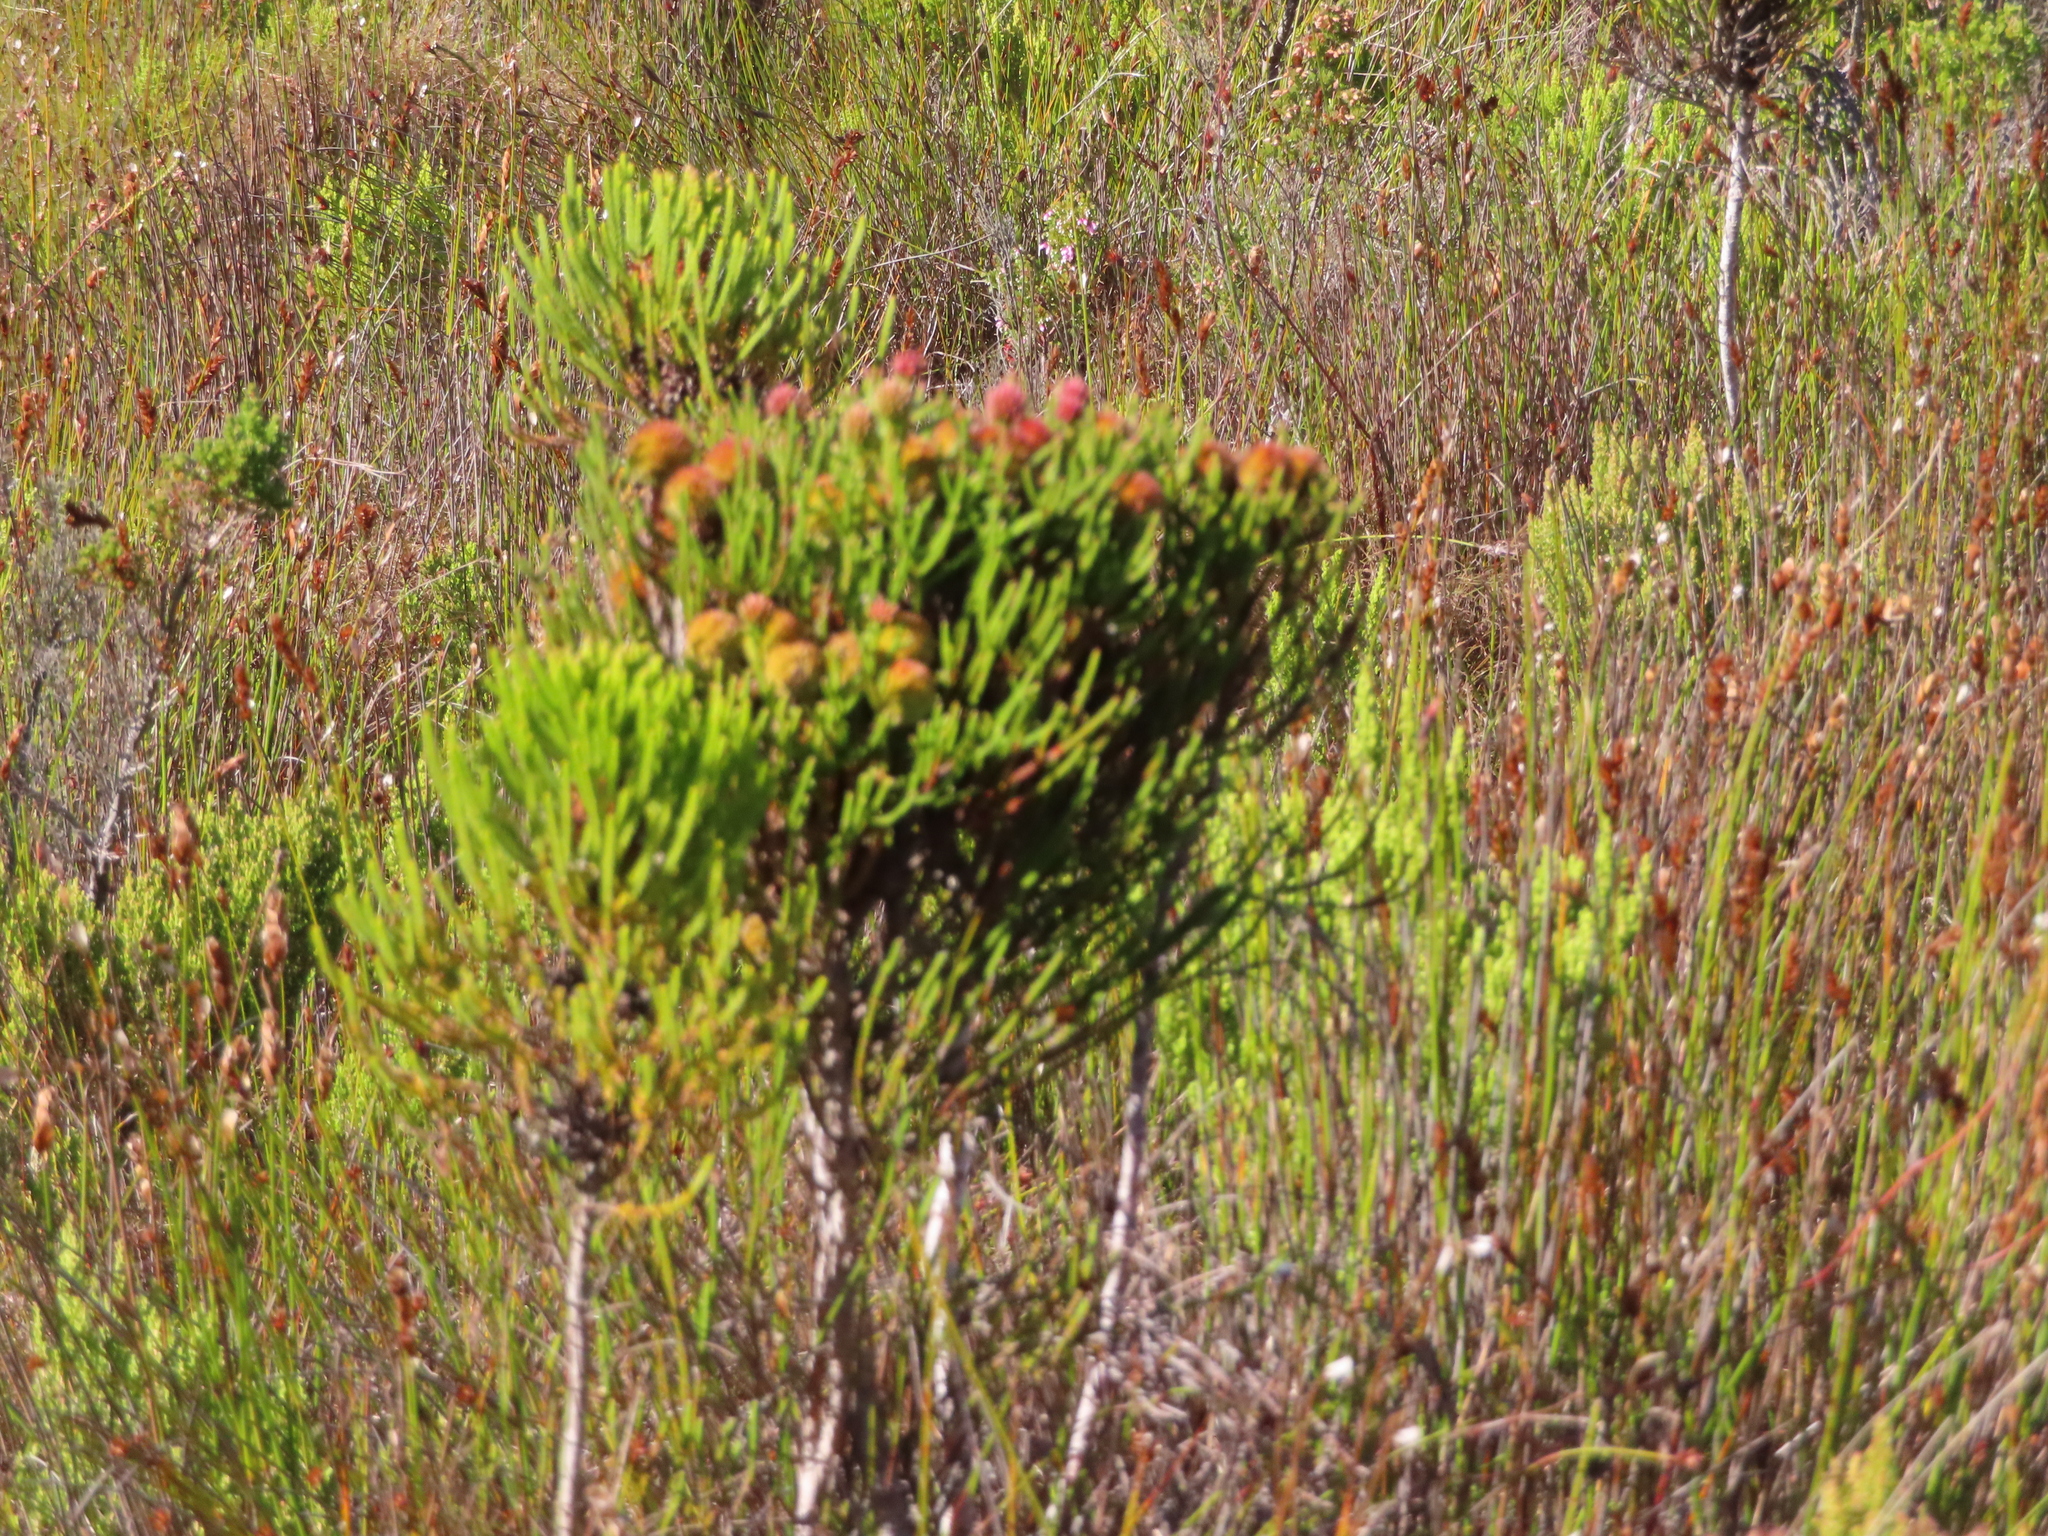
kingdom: Plantae
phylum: Tracheophyta
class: Magnoliopsida
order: Bruniales
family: Bruniaceae
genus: Brunia
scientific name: Brunia fragarioides
